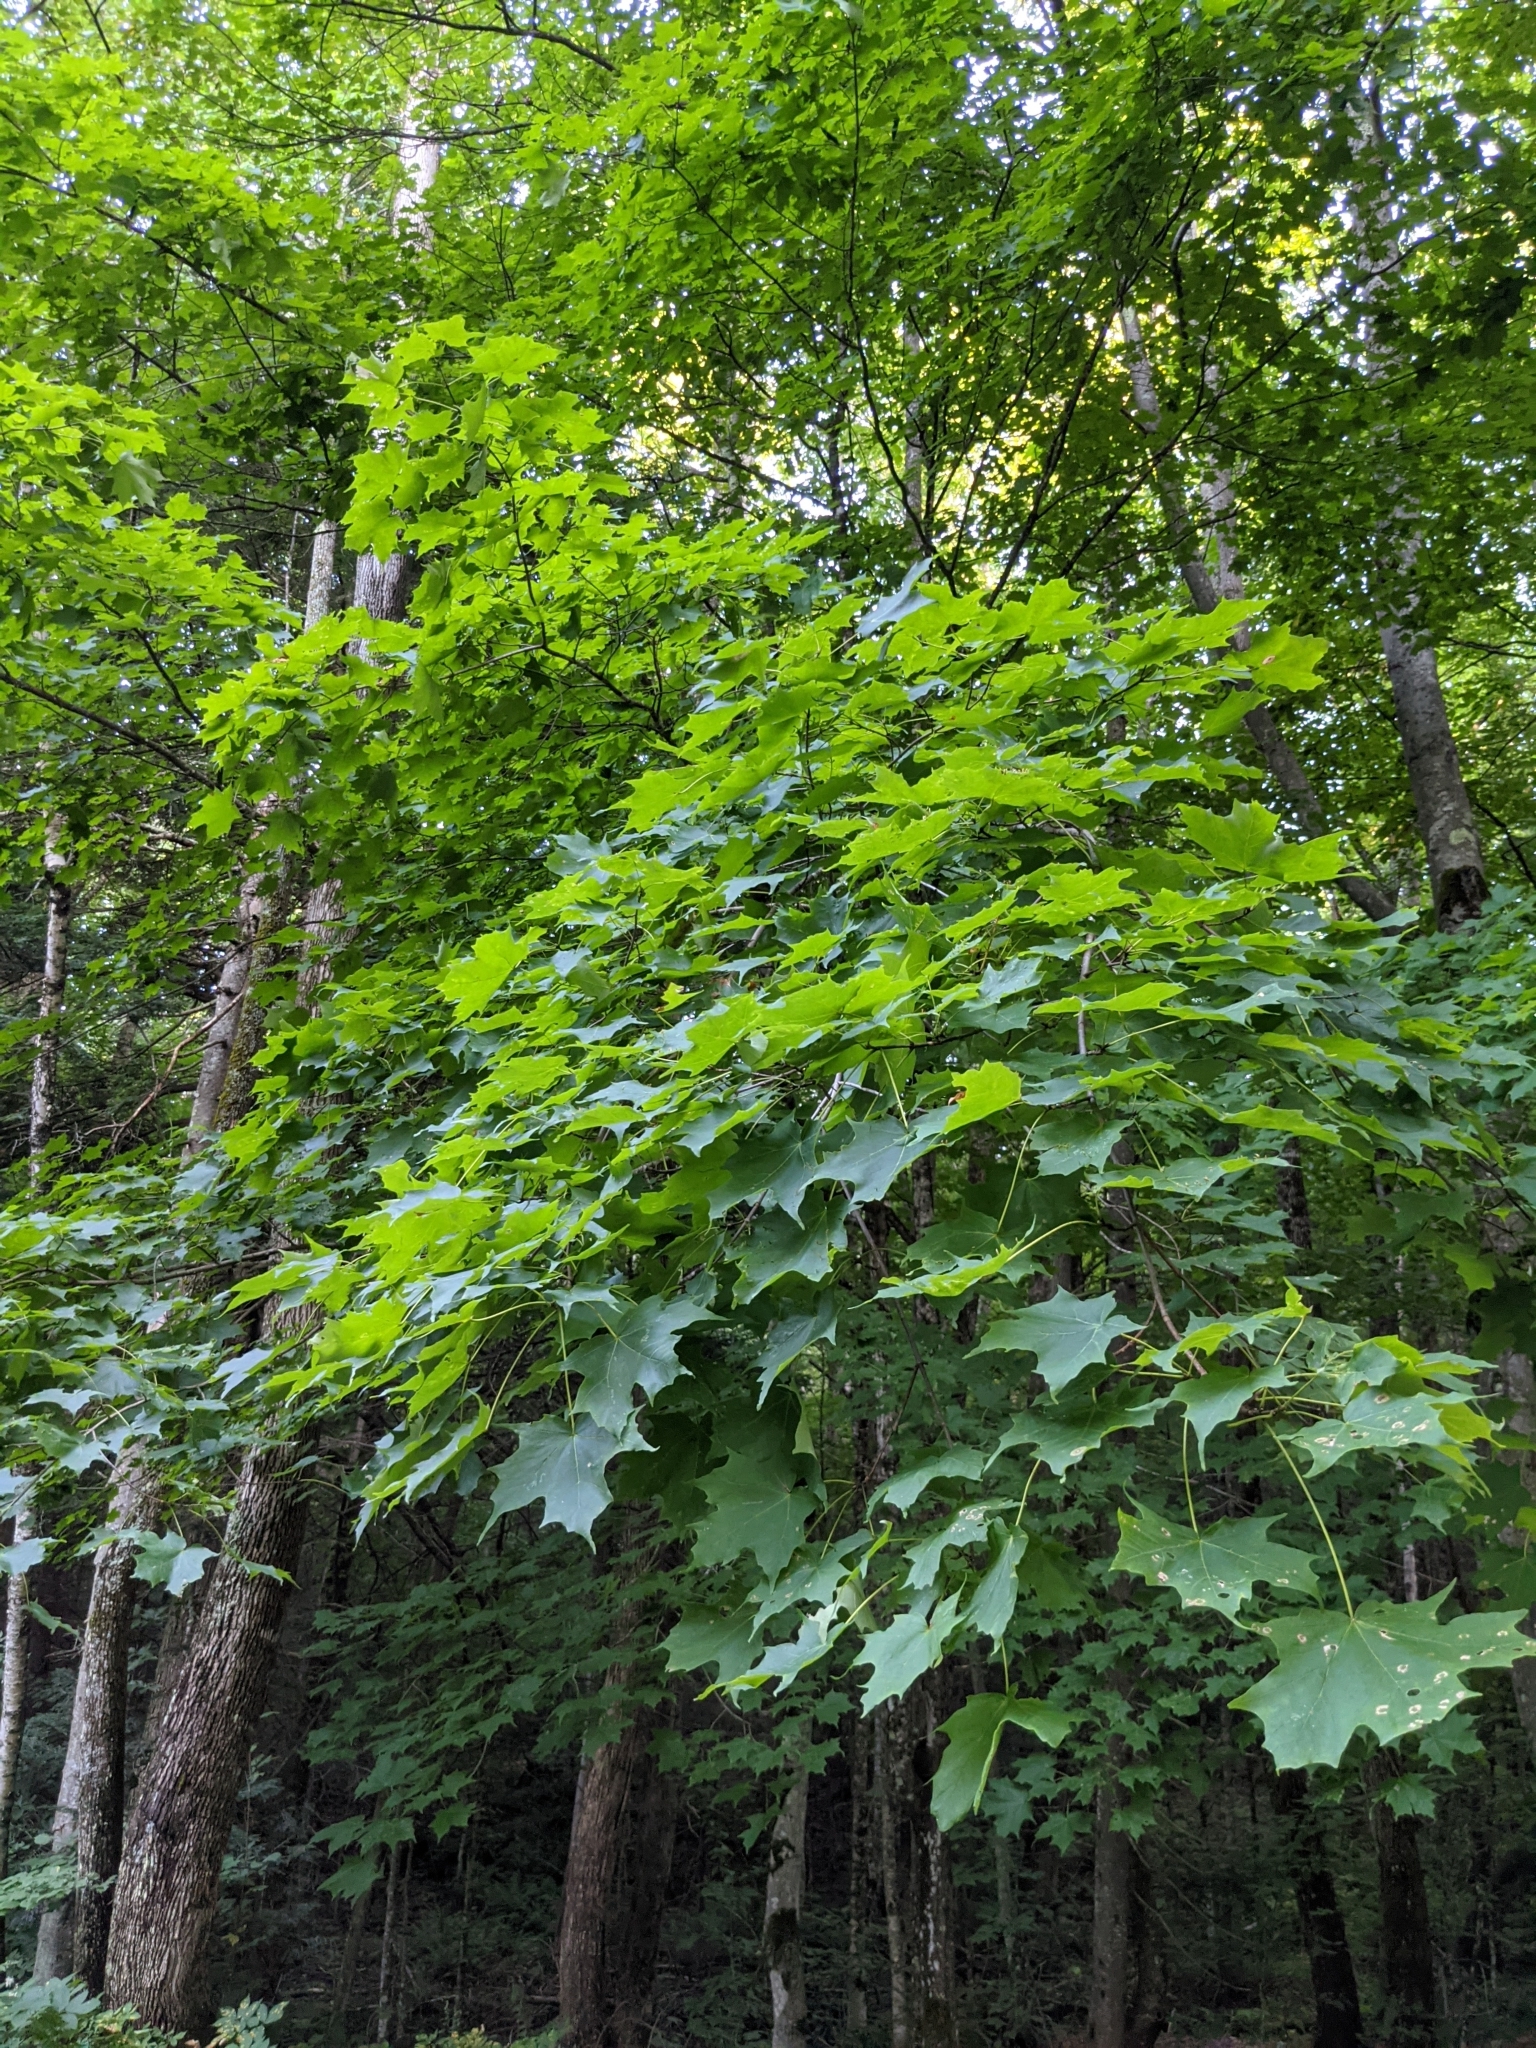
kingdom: Plantae
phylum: Tracheophyta
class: Magnoliopsida
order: Sapindales
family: Sapindaceae
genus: Acer
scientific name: Acer saccharum
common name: Sugar maple
